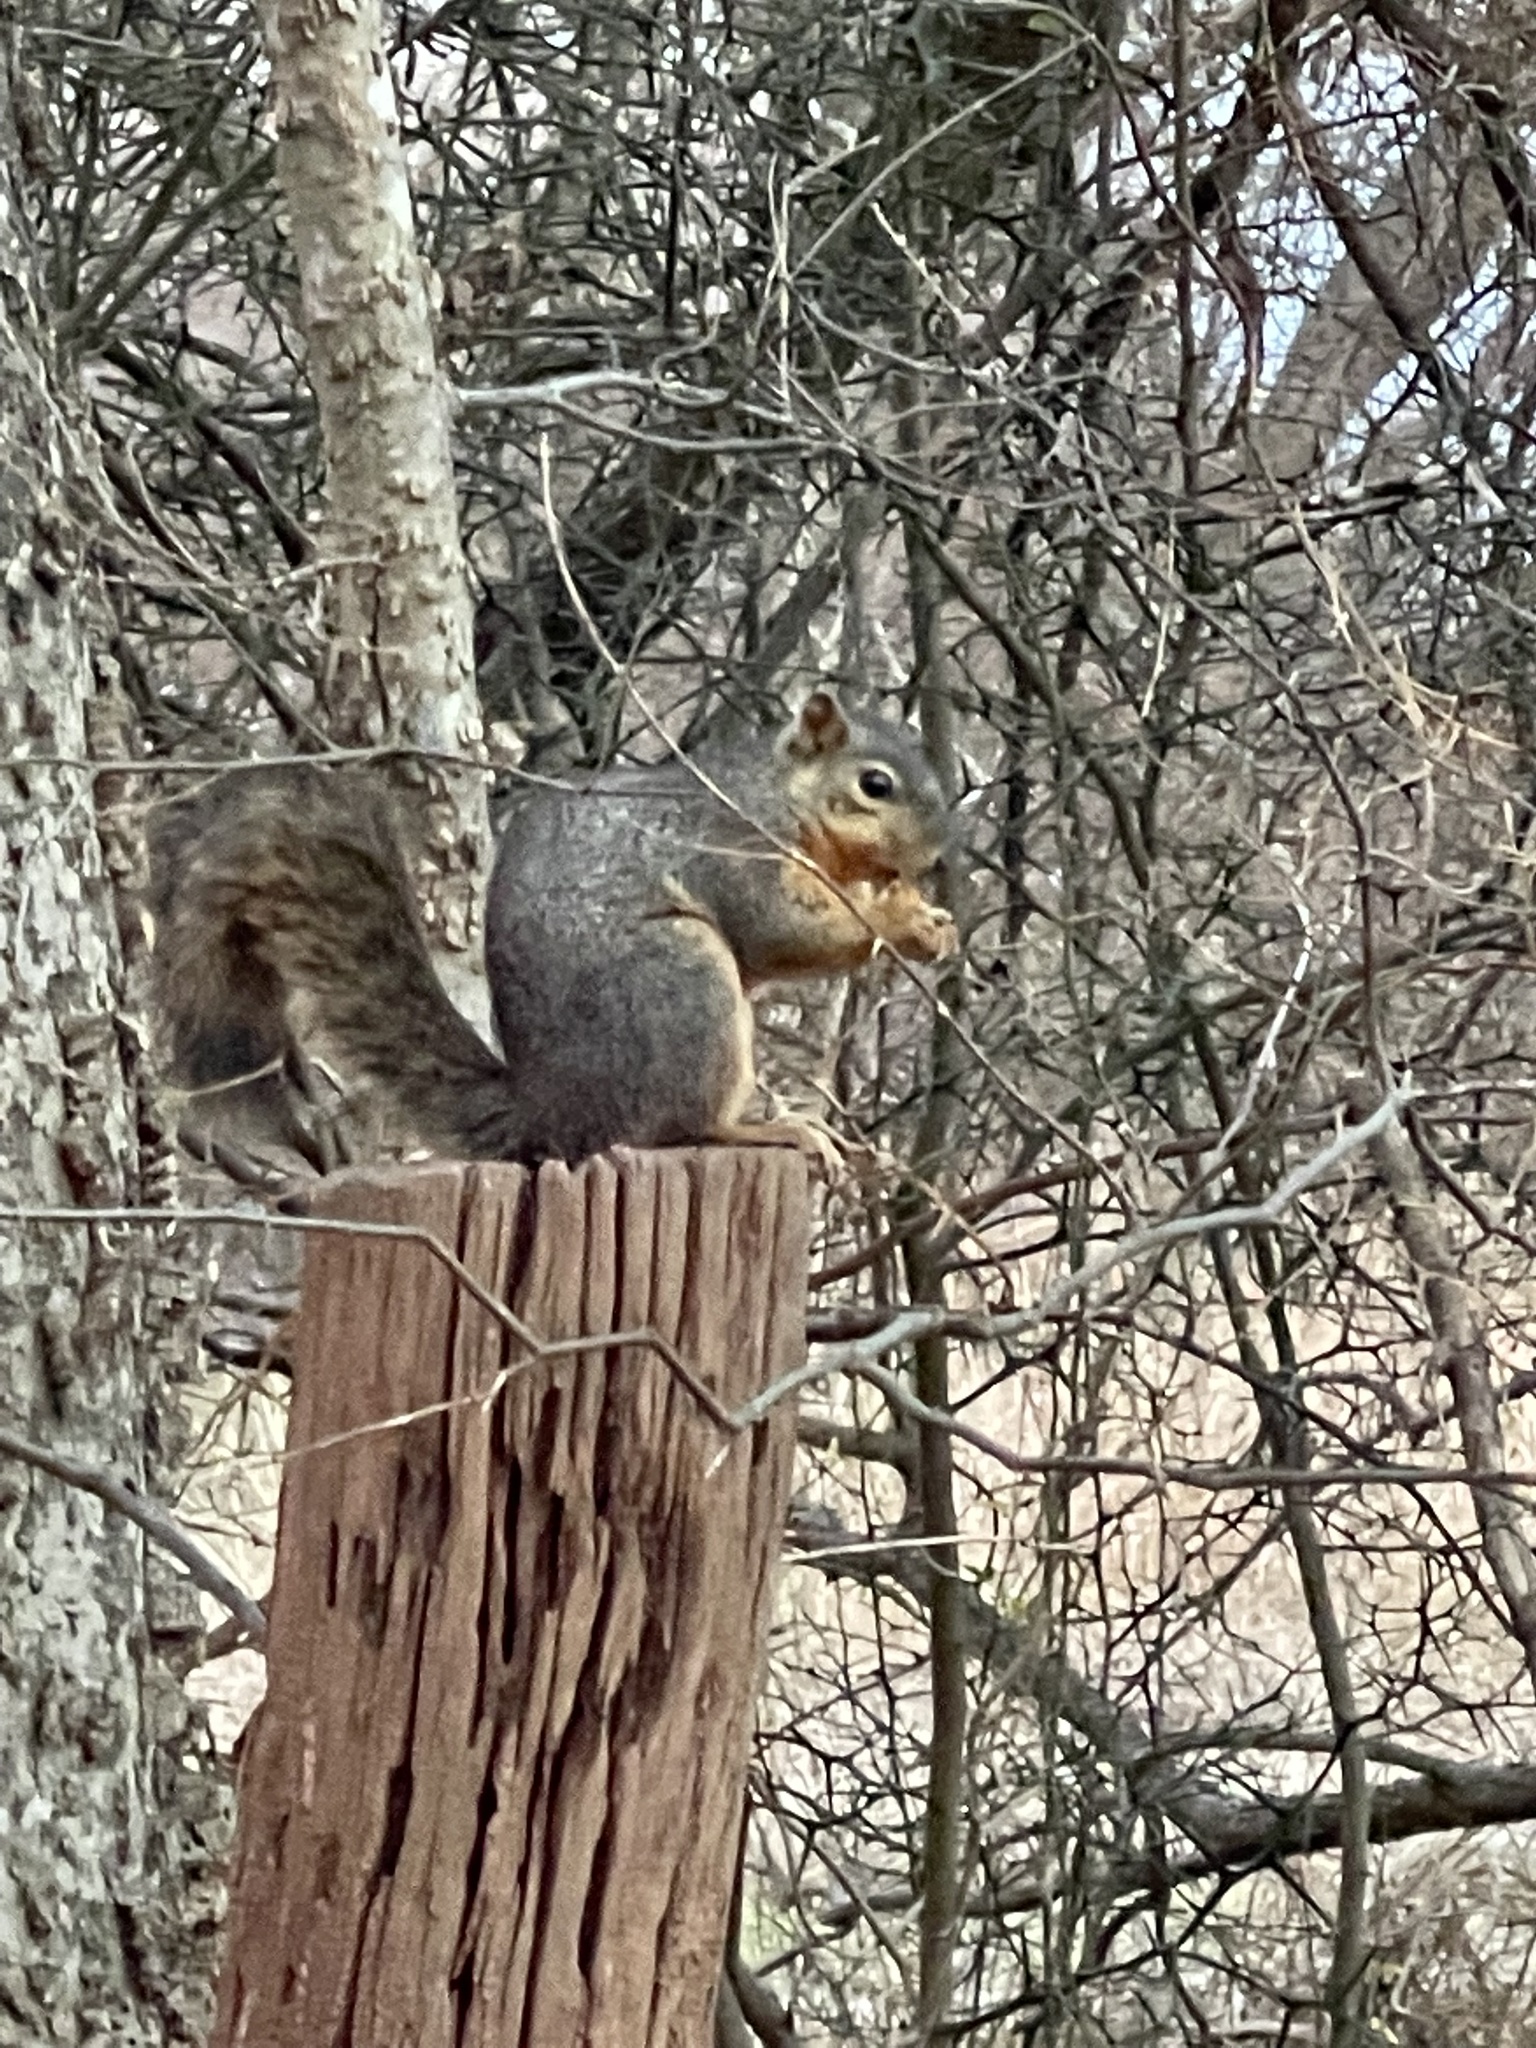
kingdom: Animalia
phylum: Chordata
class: Mammalia
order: Rodentia
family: Sciuridae
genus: Sciurus
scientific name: Sciurus niger
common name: Fox squirrel
